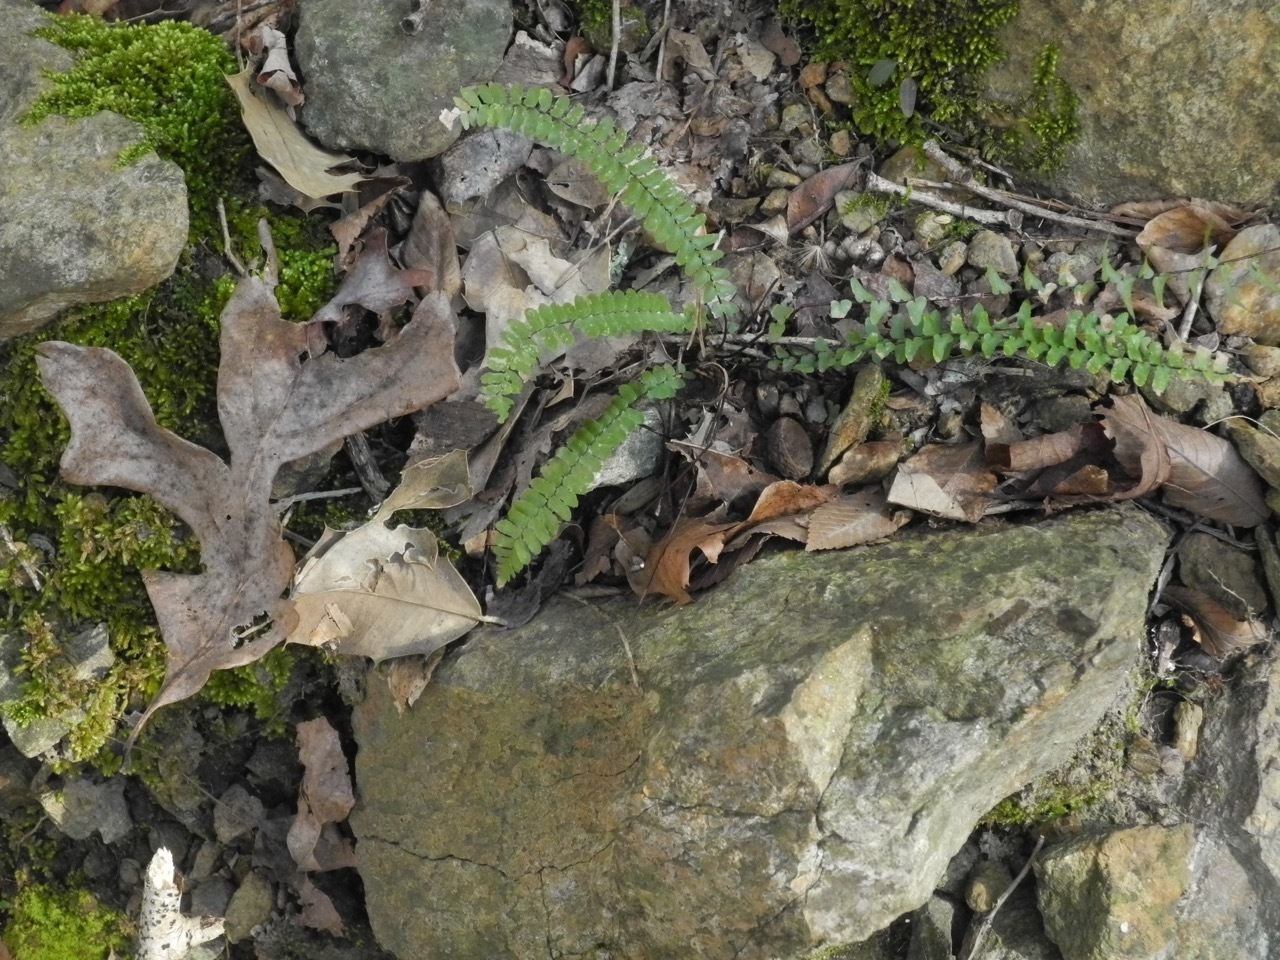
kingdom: Plantae
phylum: Tracheophyta
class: Polypodiopsida
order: Polypodiales
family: Aspleniaceae
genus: Asplenium
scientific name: Asplenium platyneuron
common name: Ebony spleenwort
